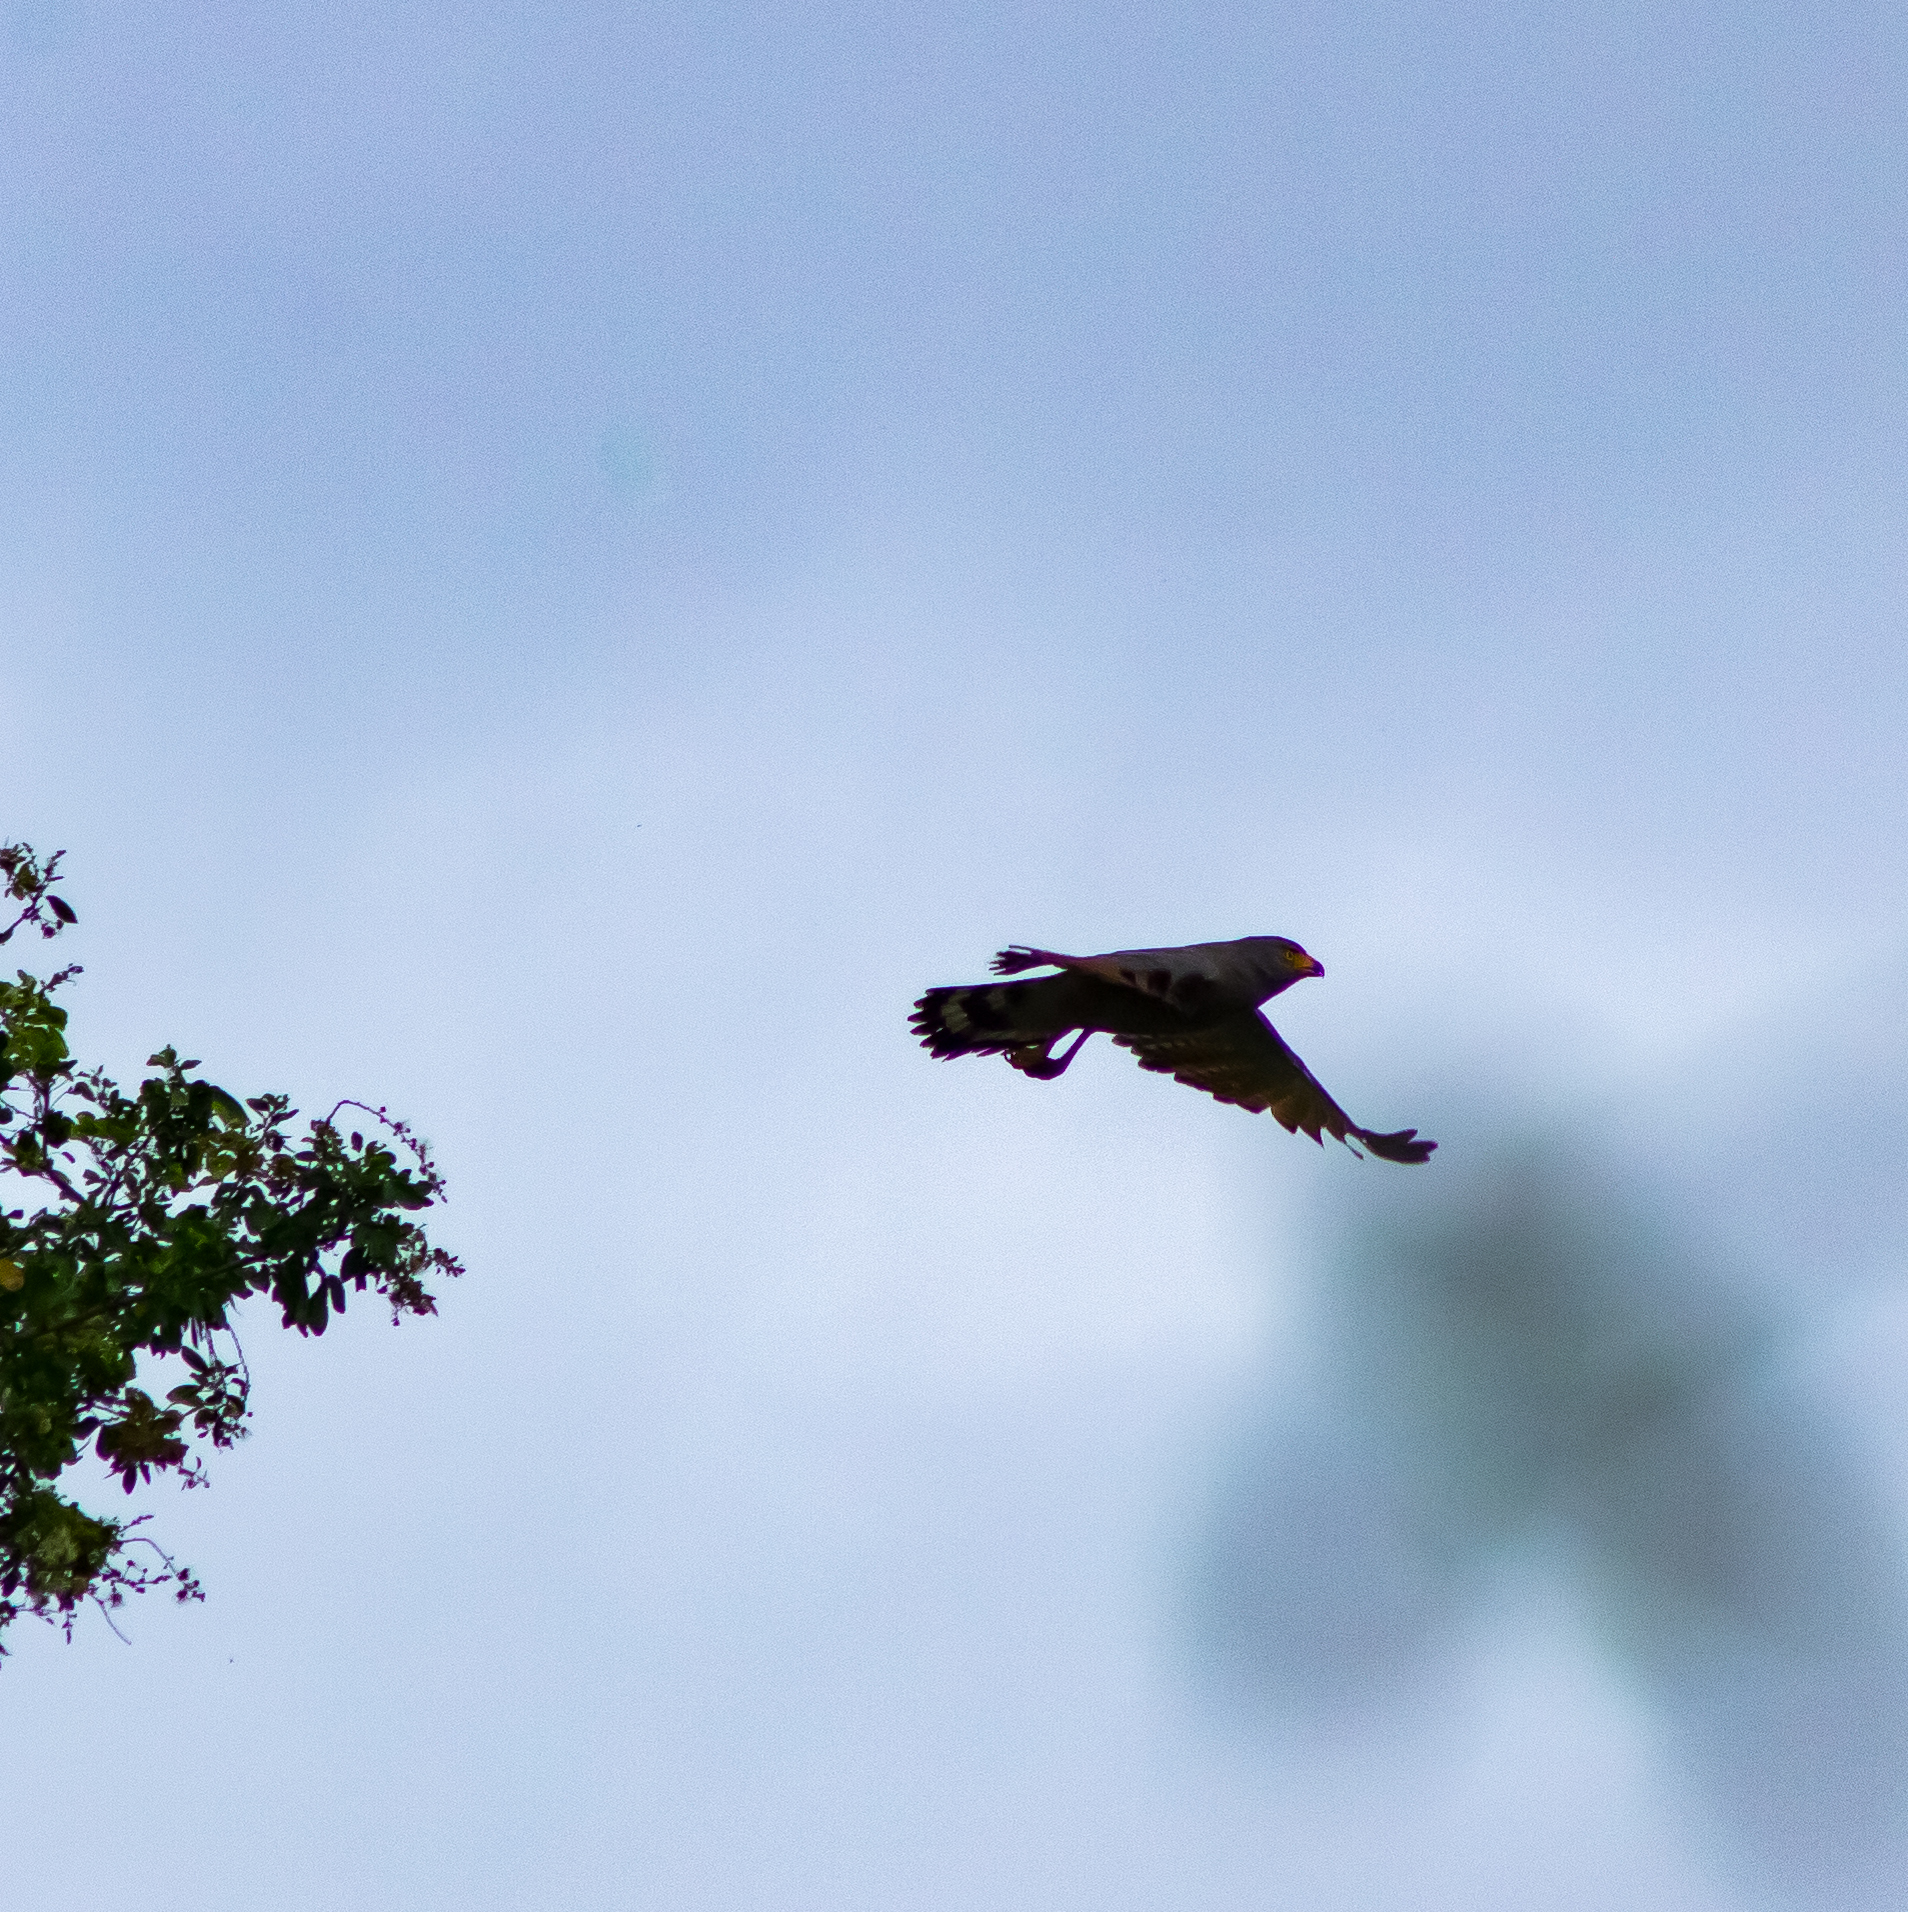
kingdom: Animalia
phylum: Chordata
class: Aves
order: Accipitriformes
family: Accipitridae
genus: Rupornis
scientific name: Rupornis magnirostris
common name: Roadside hawk
